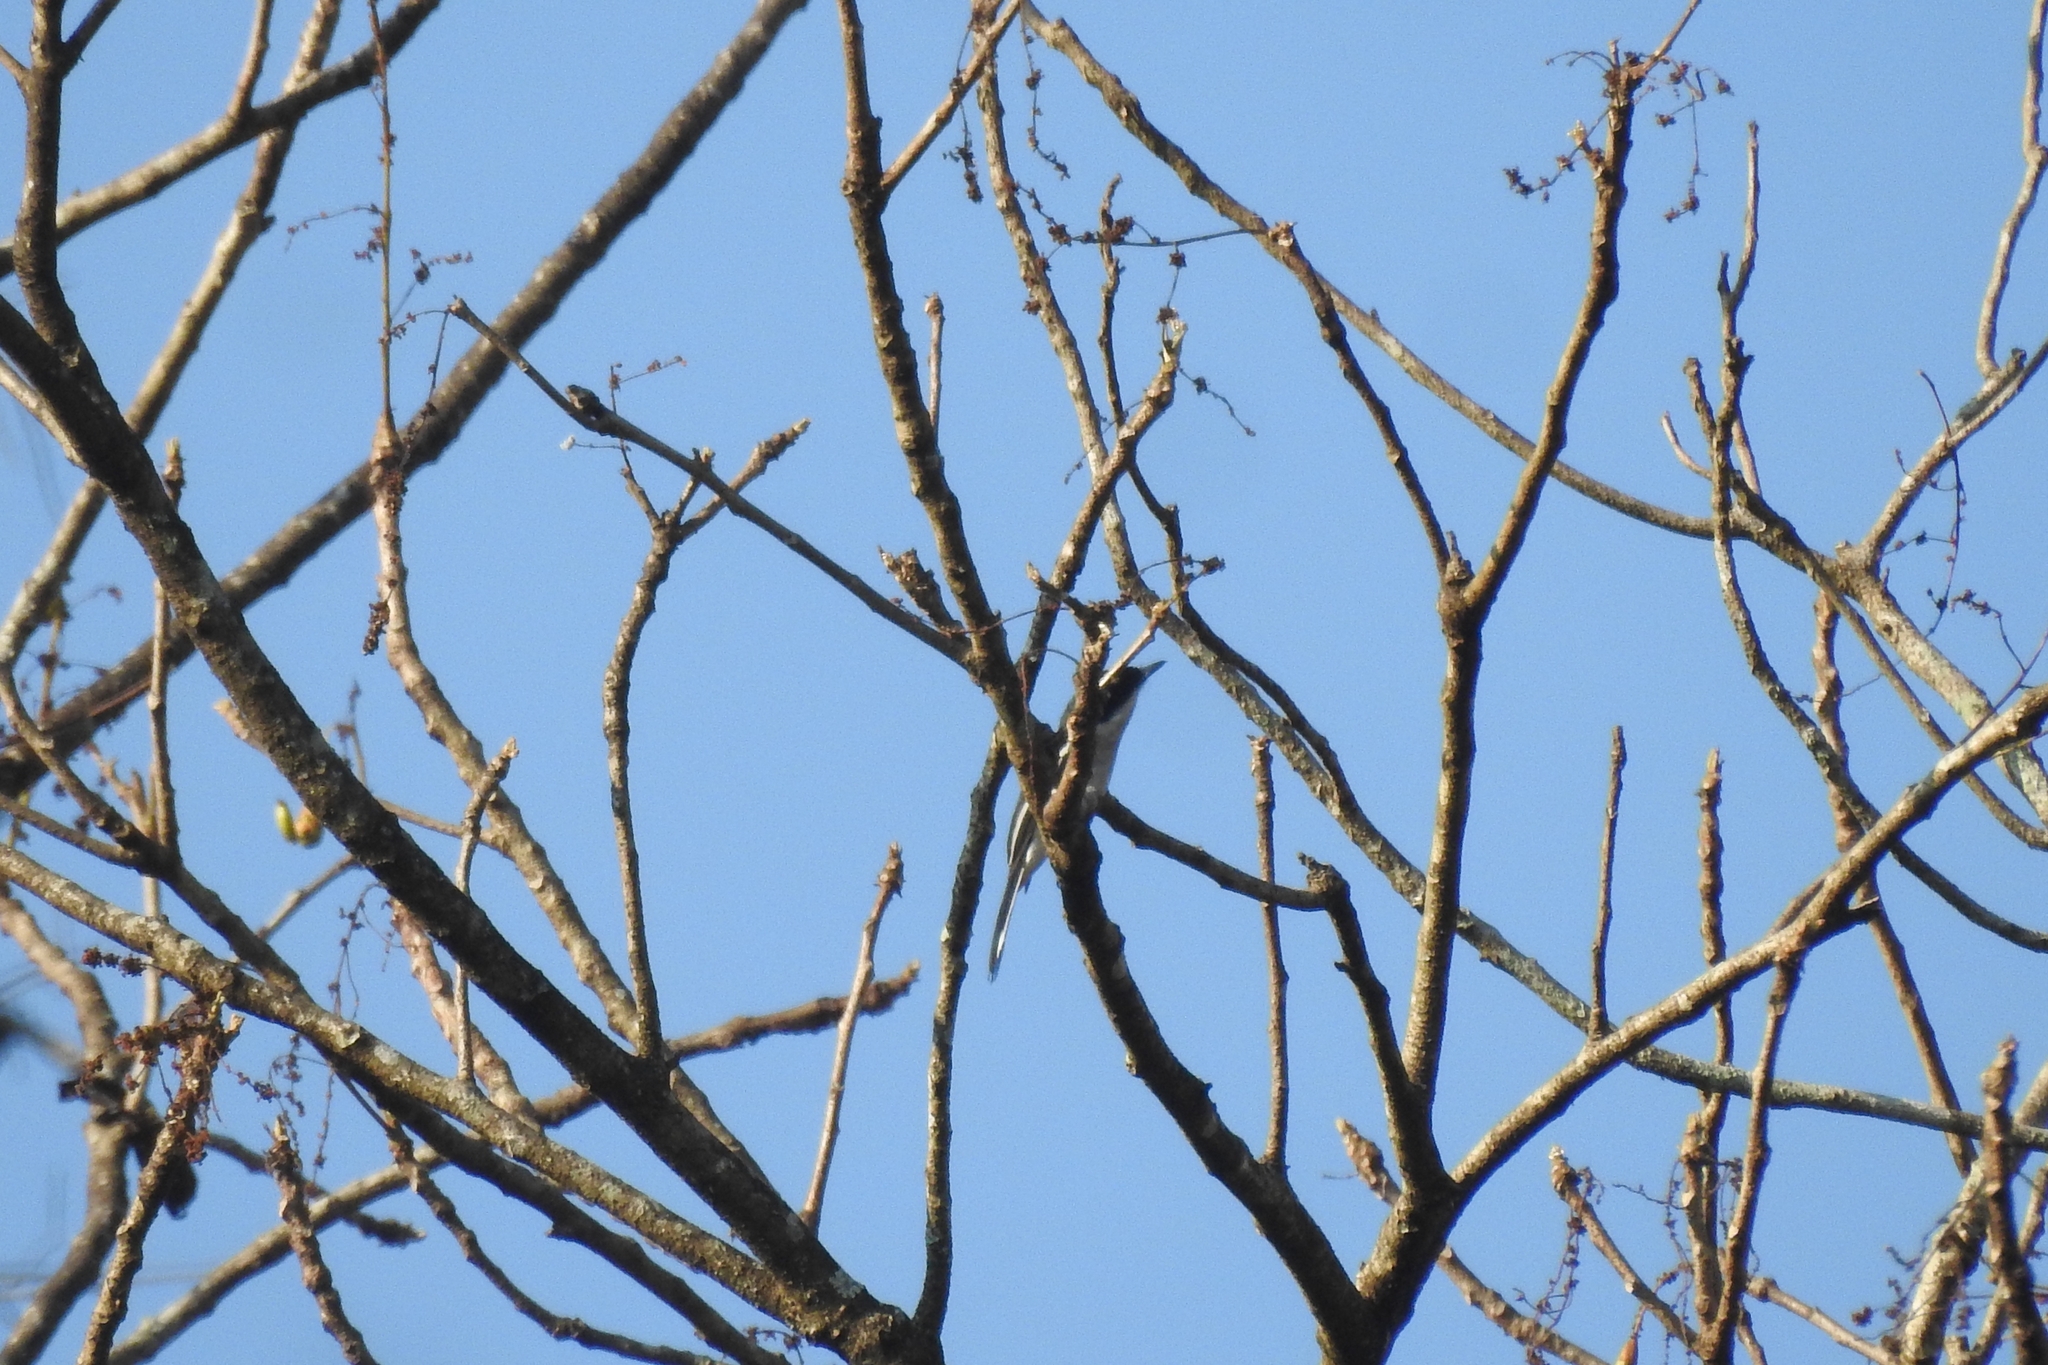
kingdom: Animalia
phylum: Chordata
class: Aves
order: Passeriformes
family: Tephrodornithidae
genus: Hemipus
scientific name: Hemipus picatus
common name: Bar-winged flycatcher-shrike
